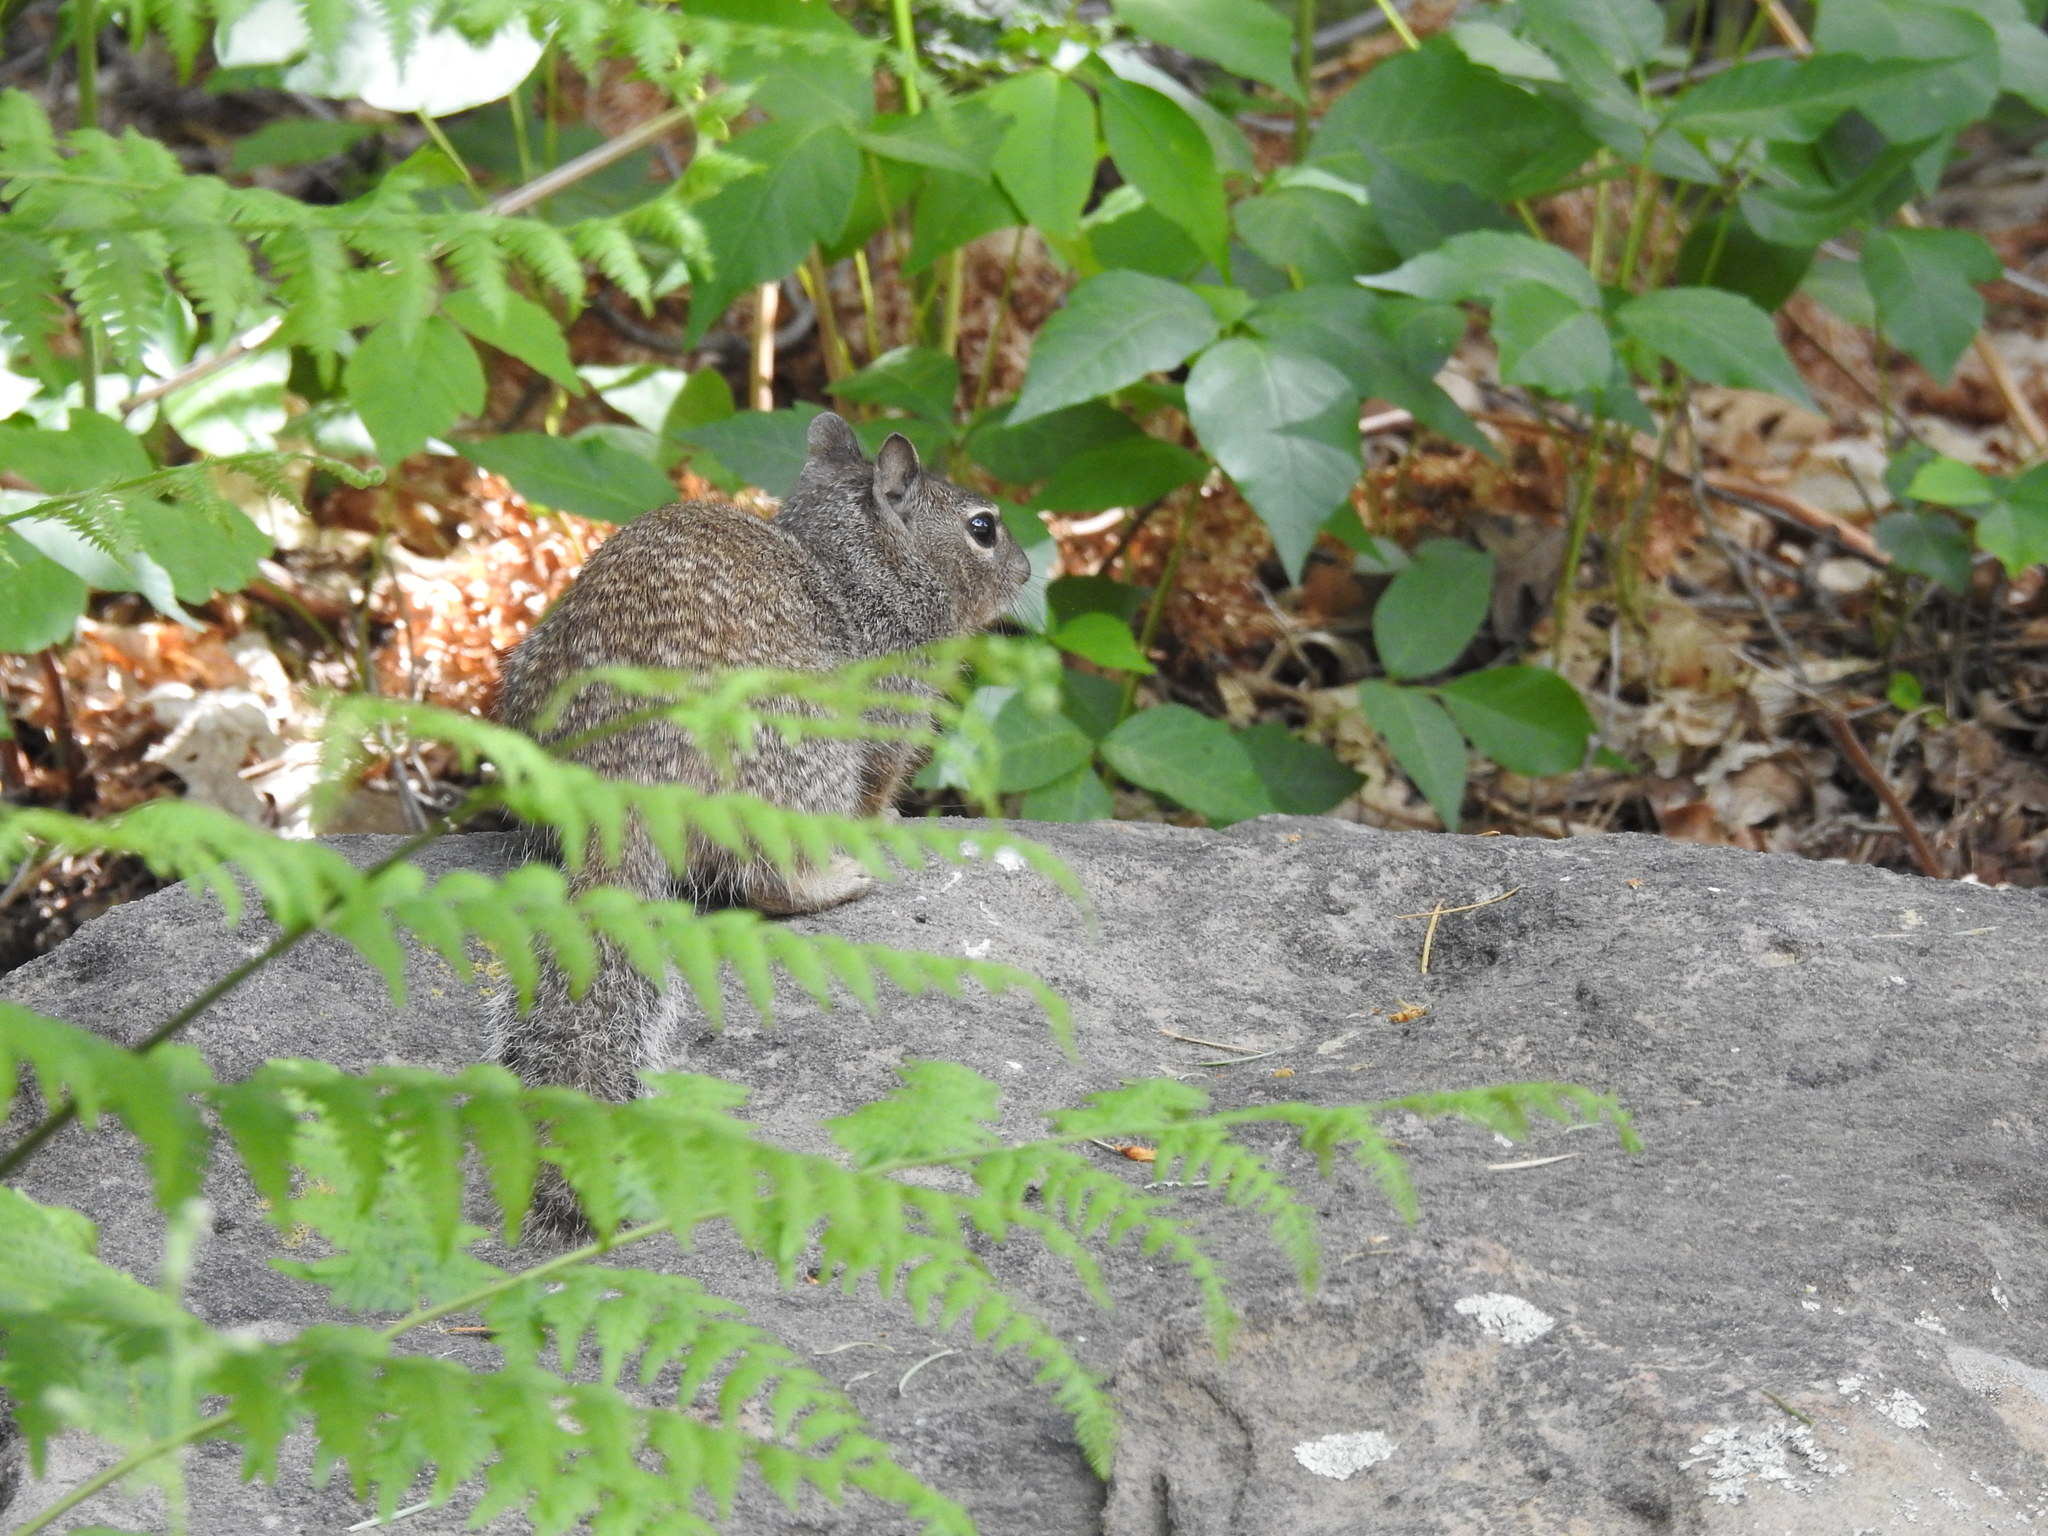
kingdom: Animalia
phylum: Chordata
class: Mammalia
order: Rodentia
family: Sciuridae
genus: Otospermophilus
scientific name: Otospermophilus variegatus
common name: Rock squirrel
